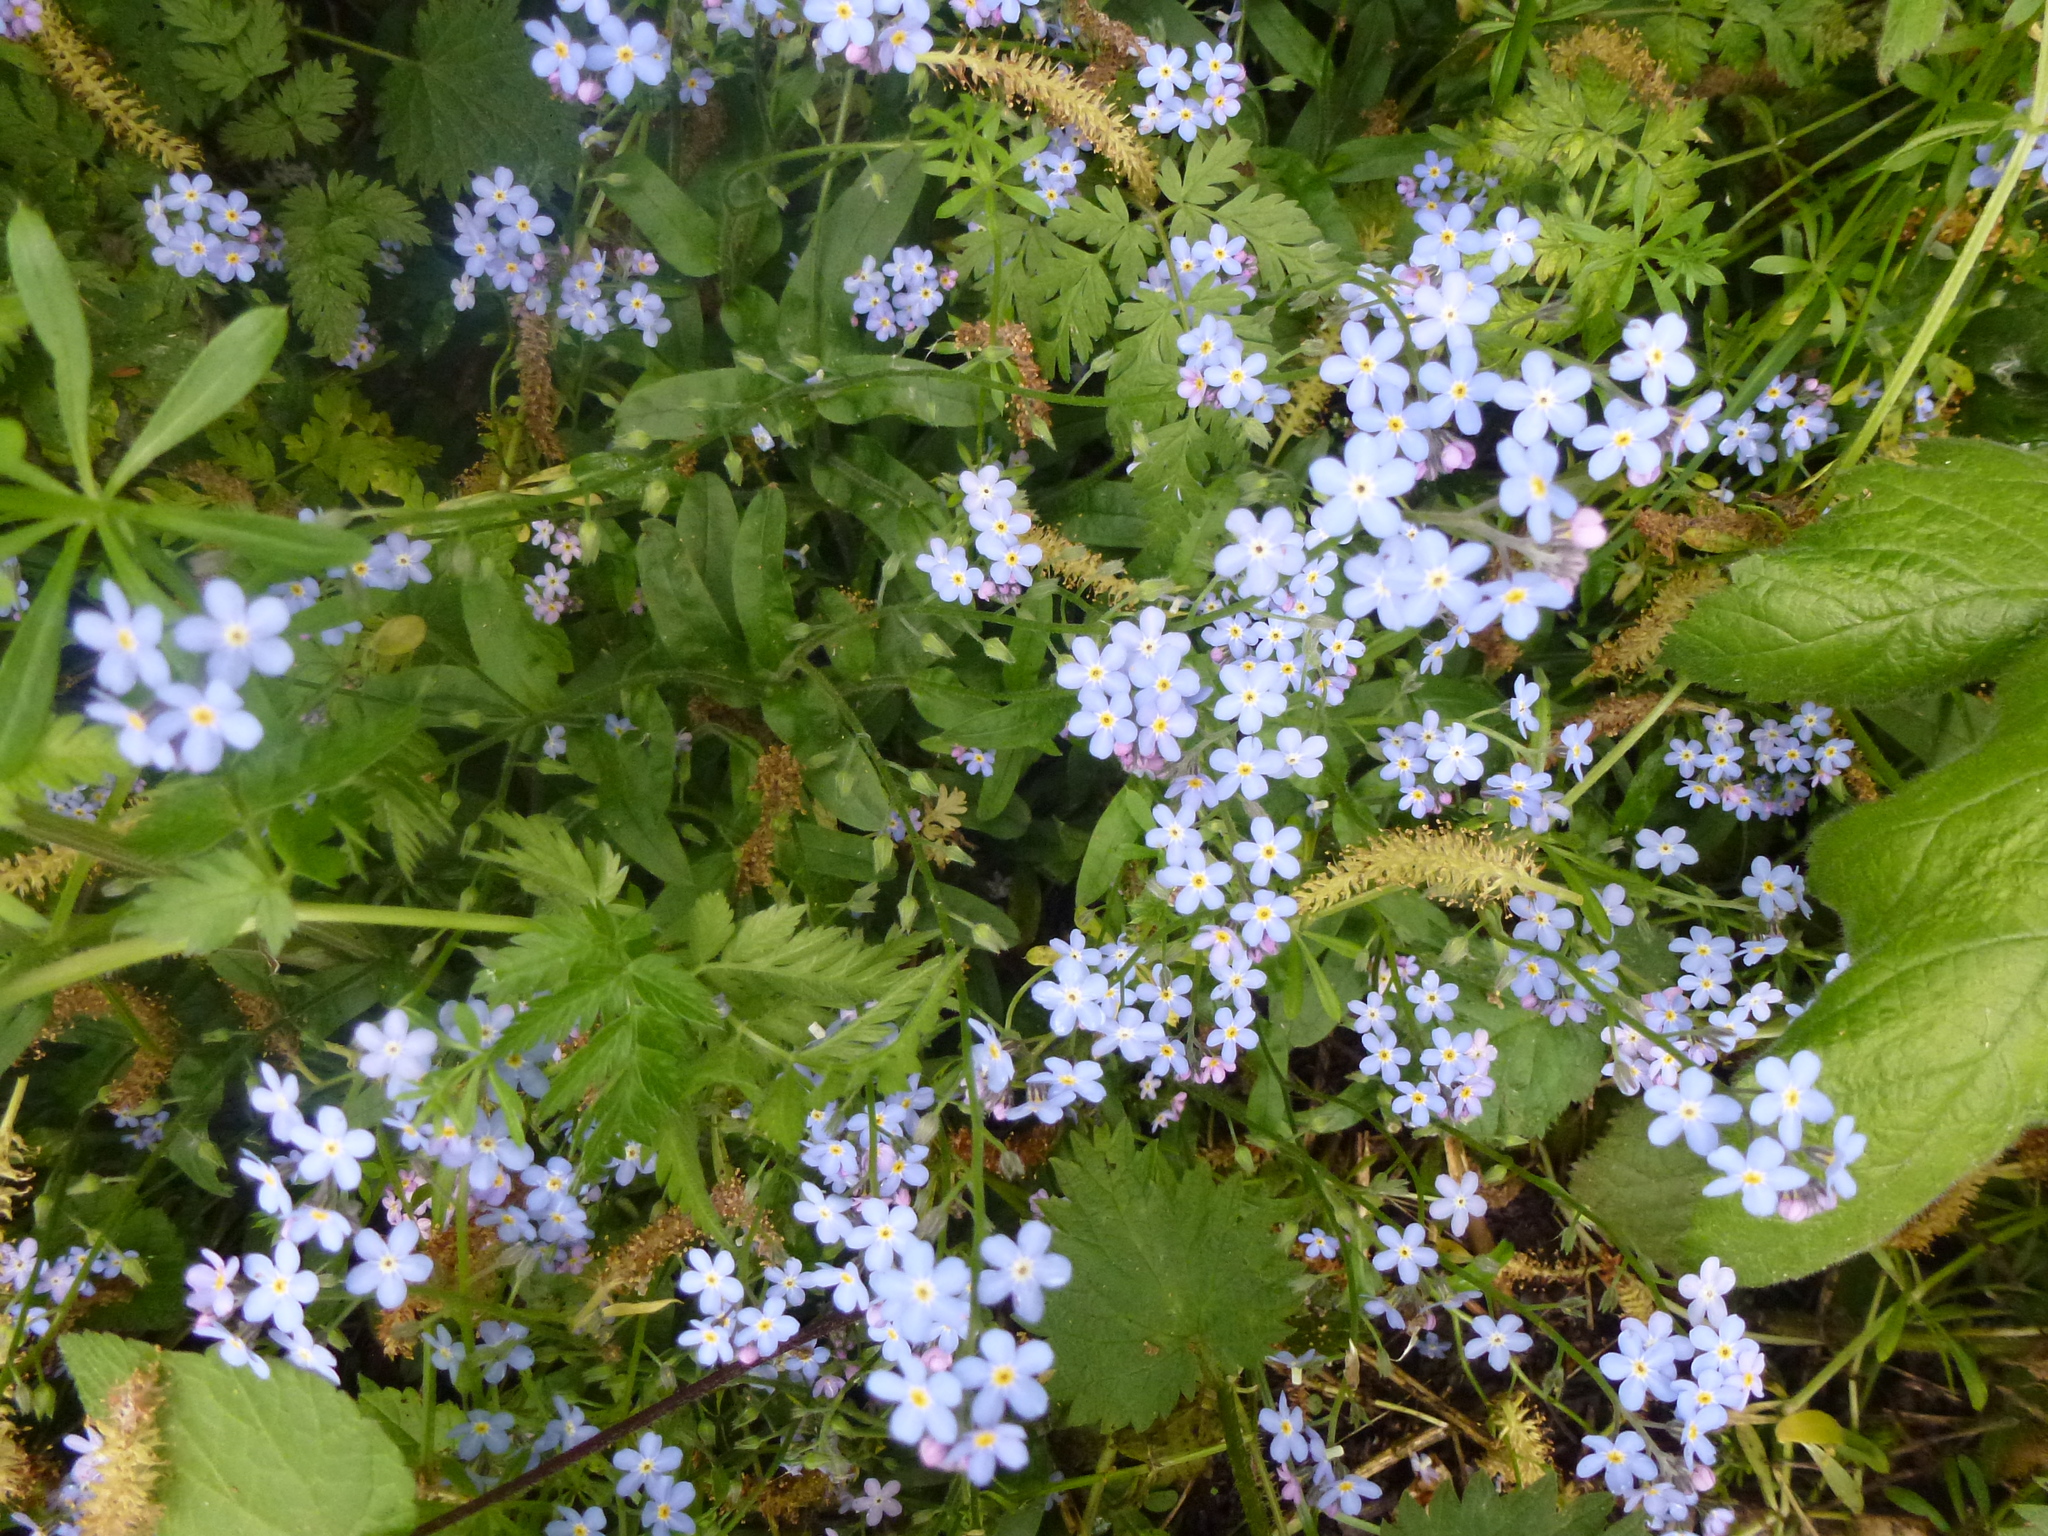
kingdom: Plantae
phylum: Tracheophyta
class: Magnoliopsida
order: Boraginales
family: Boraginaceae
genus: Myosotis
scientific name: Myosotis sylvatica
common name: Wood forget-me-not
